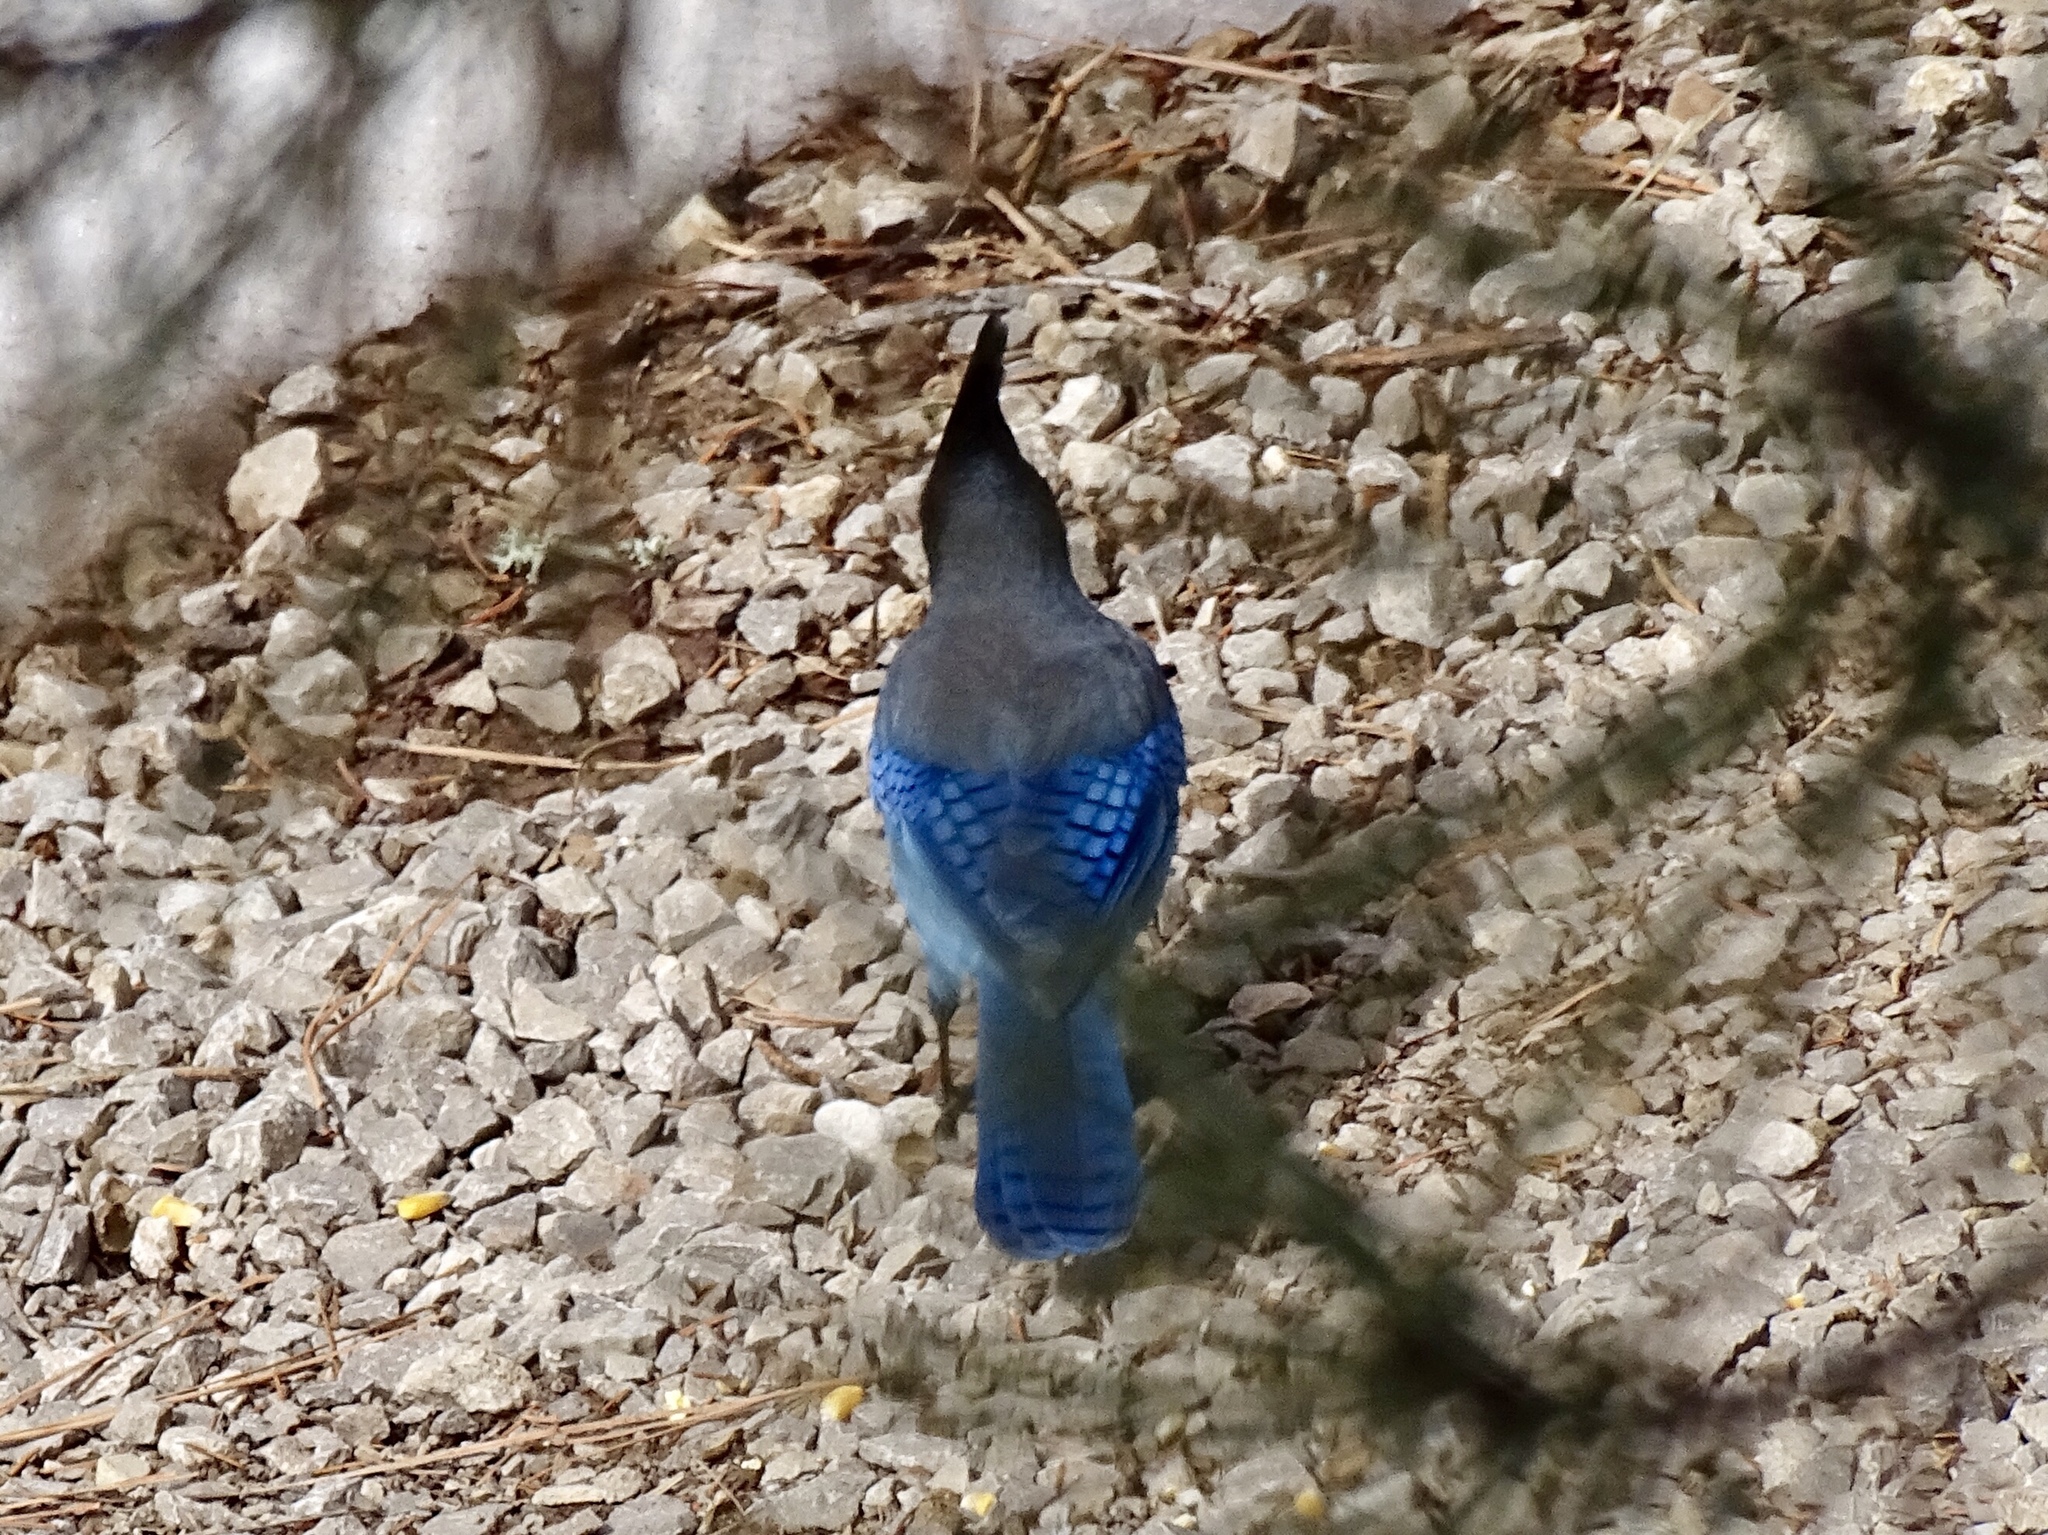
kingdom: Animalia
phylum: Chordata
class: Aves
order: Passeriformes
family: Corvidae
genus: Cyanocitta
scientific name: Cyanocitta stelleri
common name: Steller's jay
